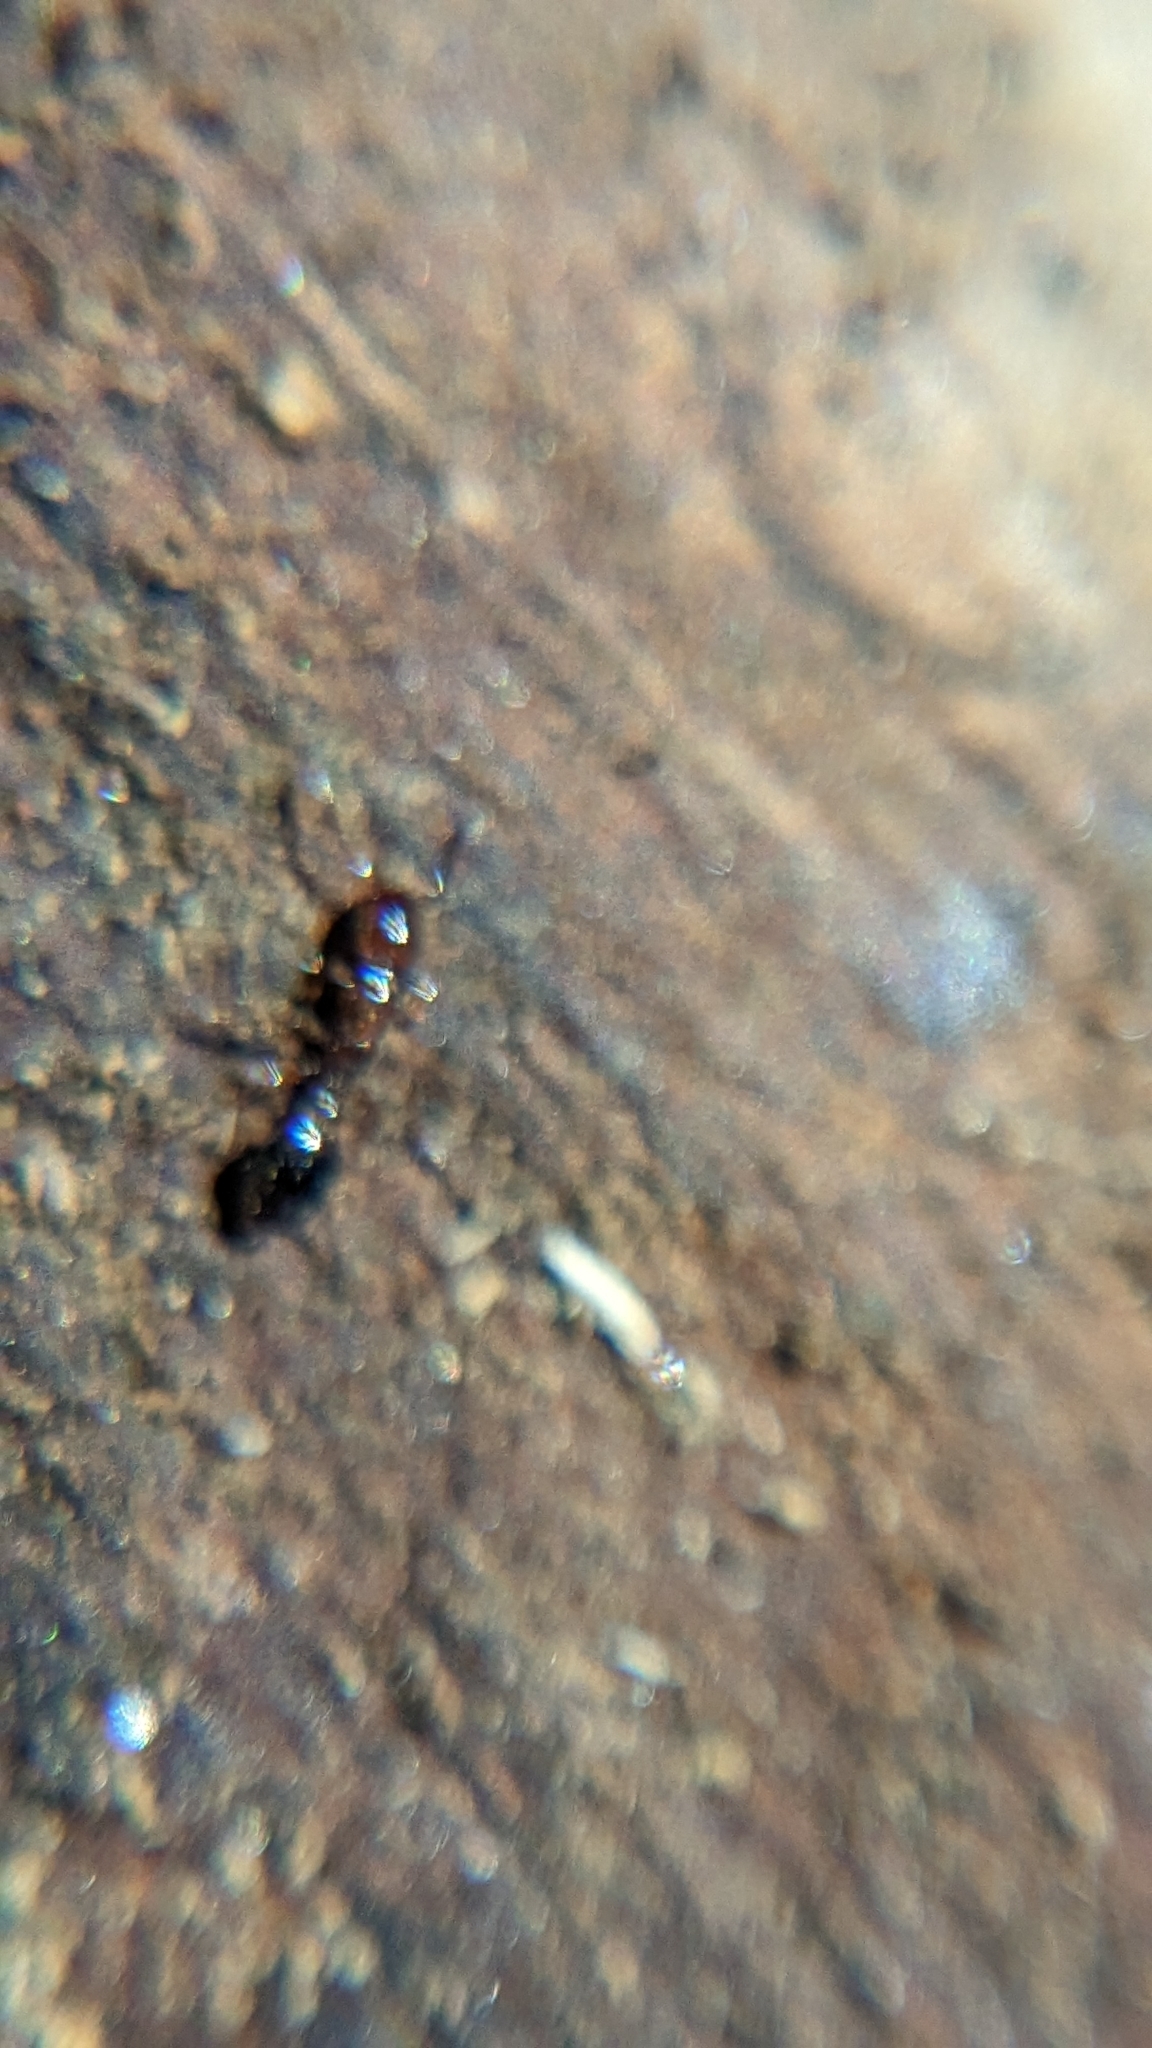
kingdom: Animalia
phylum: Arthropoda
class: Insecta
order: Hymenoptera
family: Formicidae
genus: Formicoxenus
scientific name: Formicoxenus nitidulus
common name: Shining guest ant
